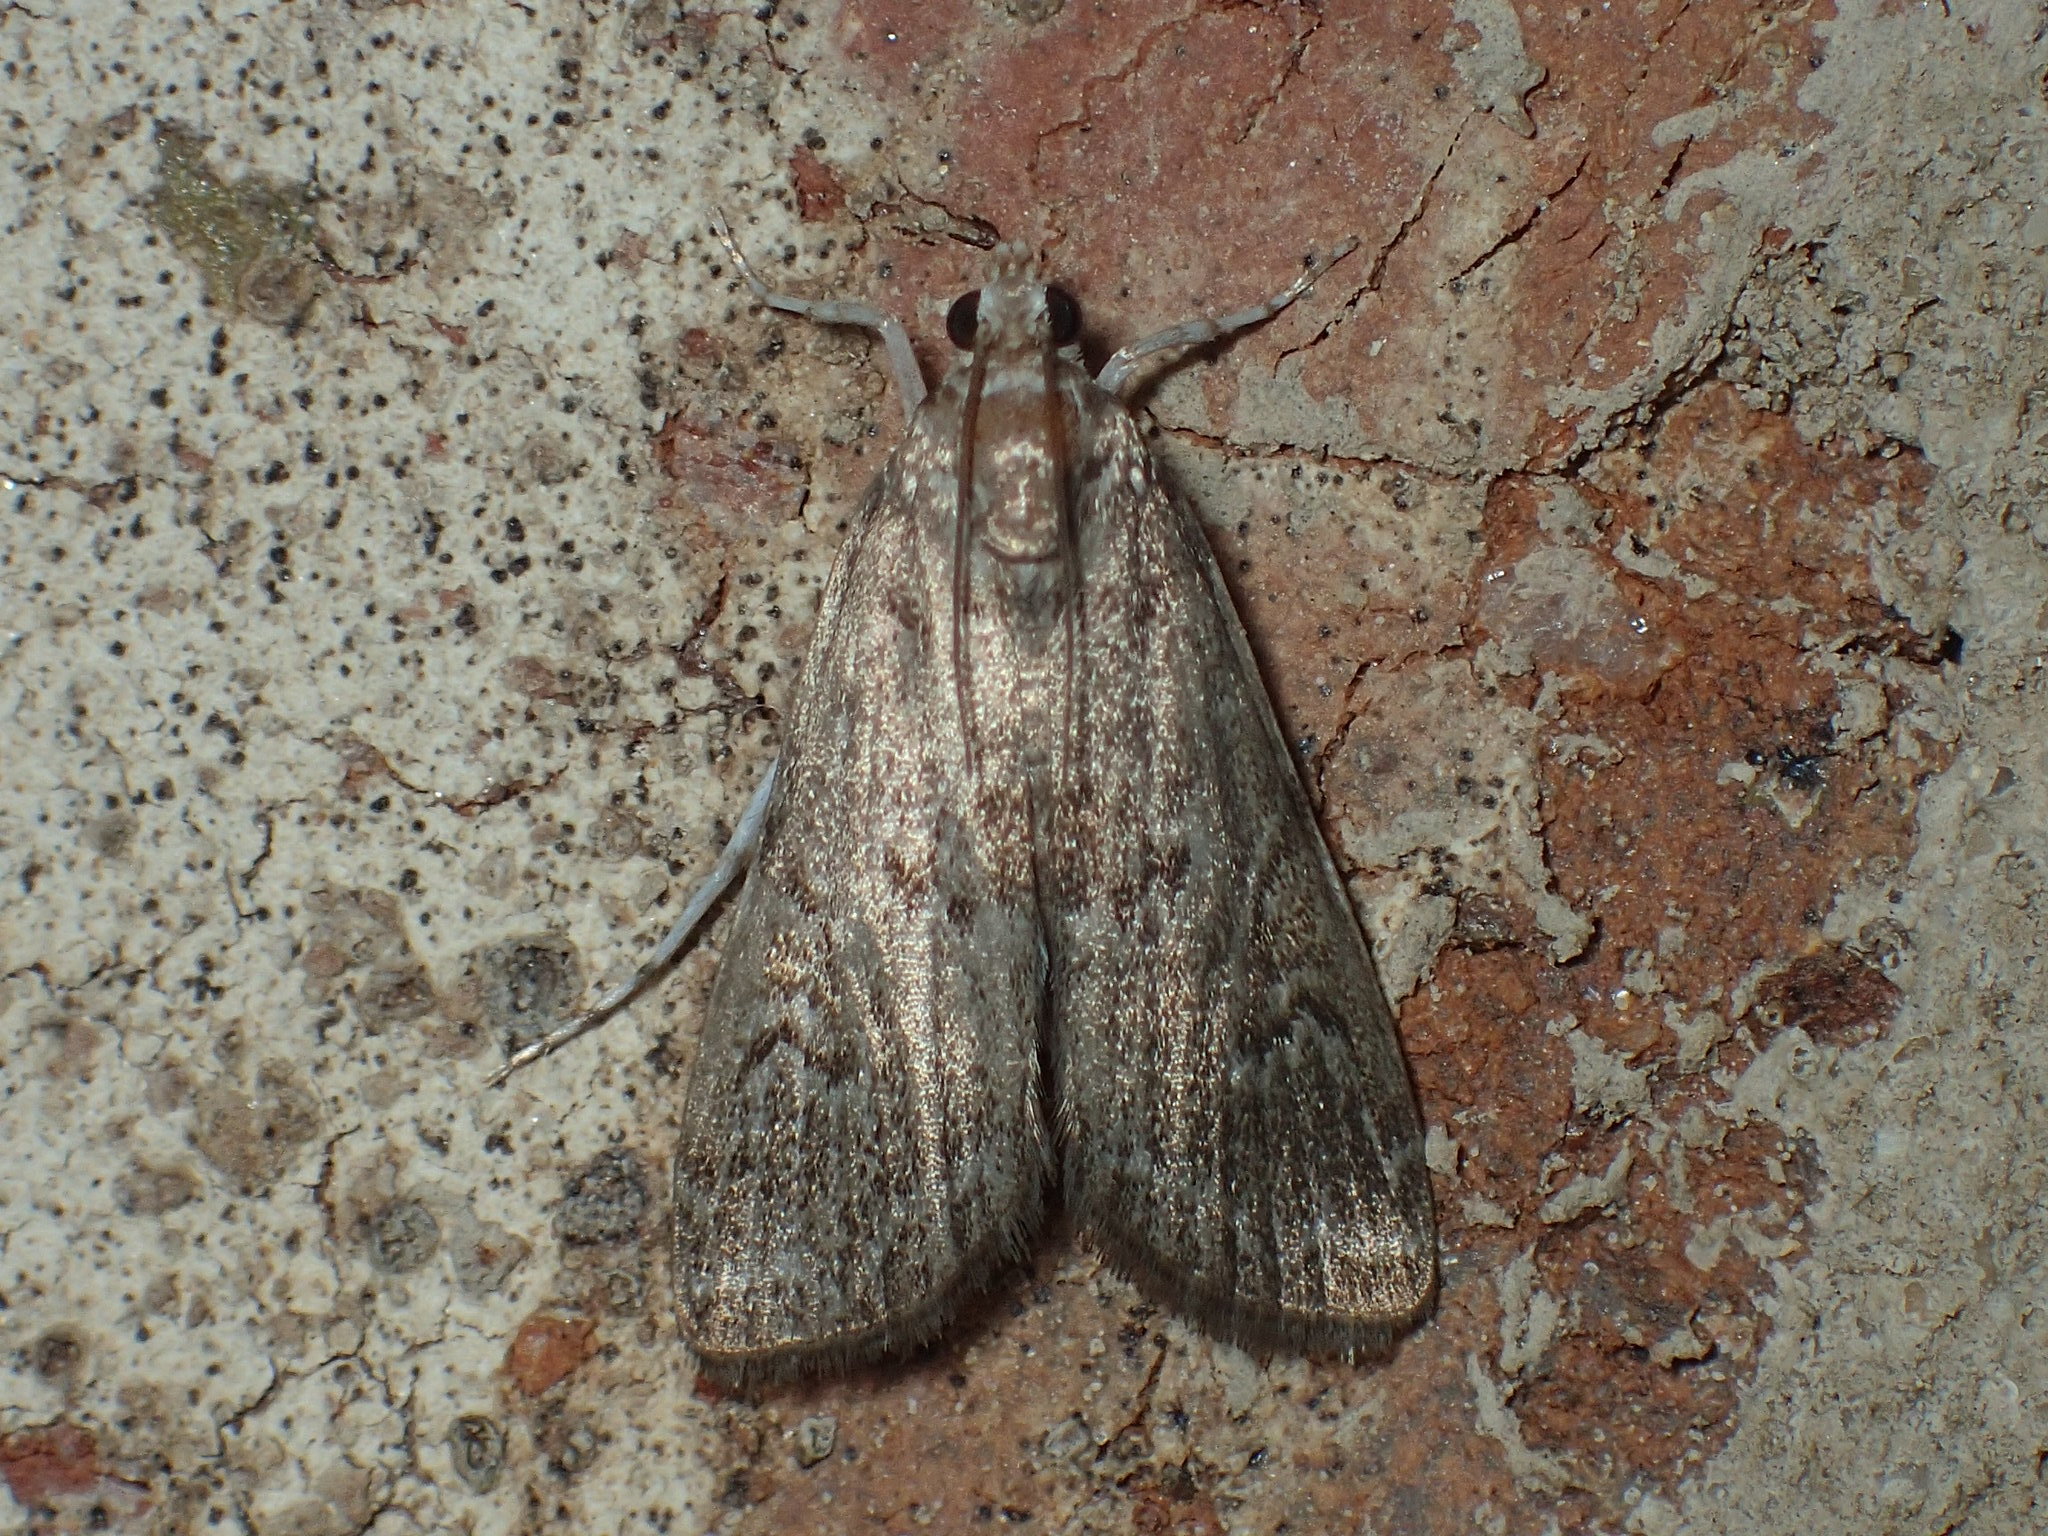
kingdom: Animalia
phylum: Arthropoda
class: Insecta
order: Lepidoptera
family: Crambidae
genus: Elophila
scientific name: Elophila gyralis
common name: Waterlily borer moth
